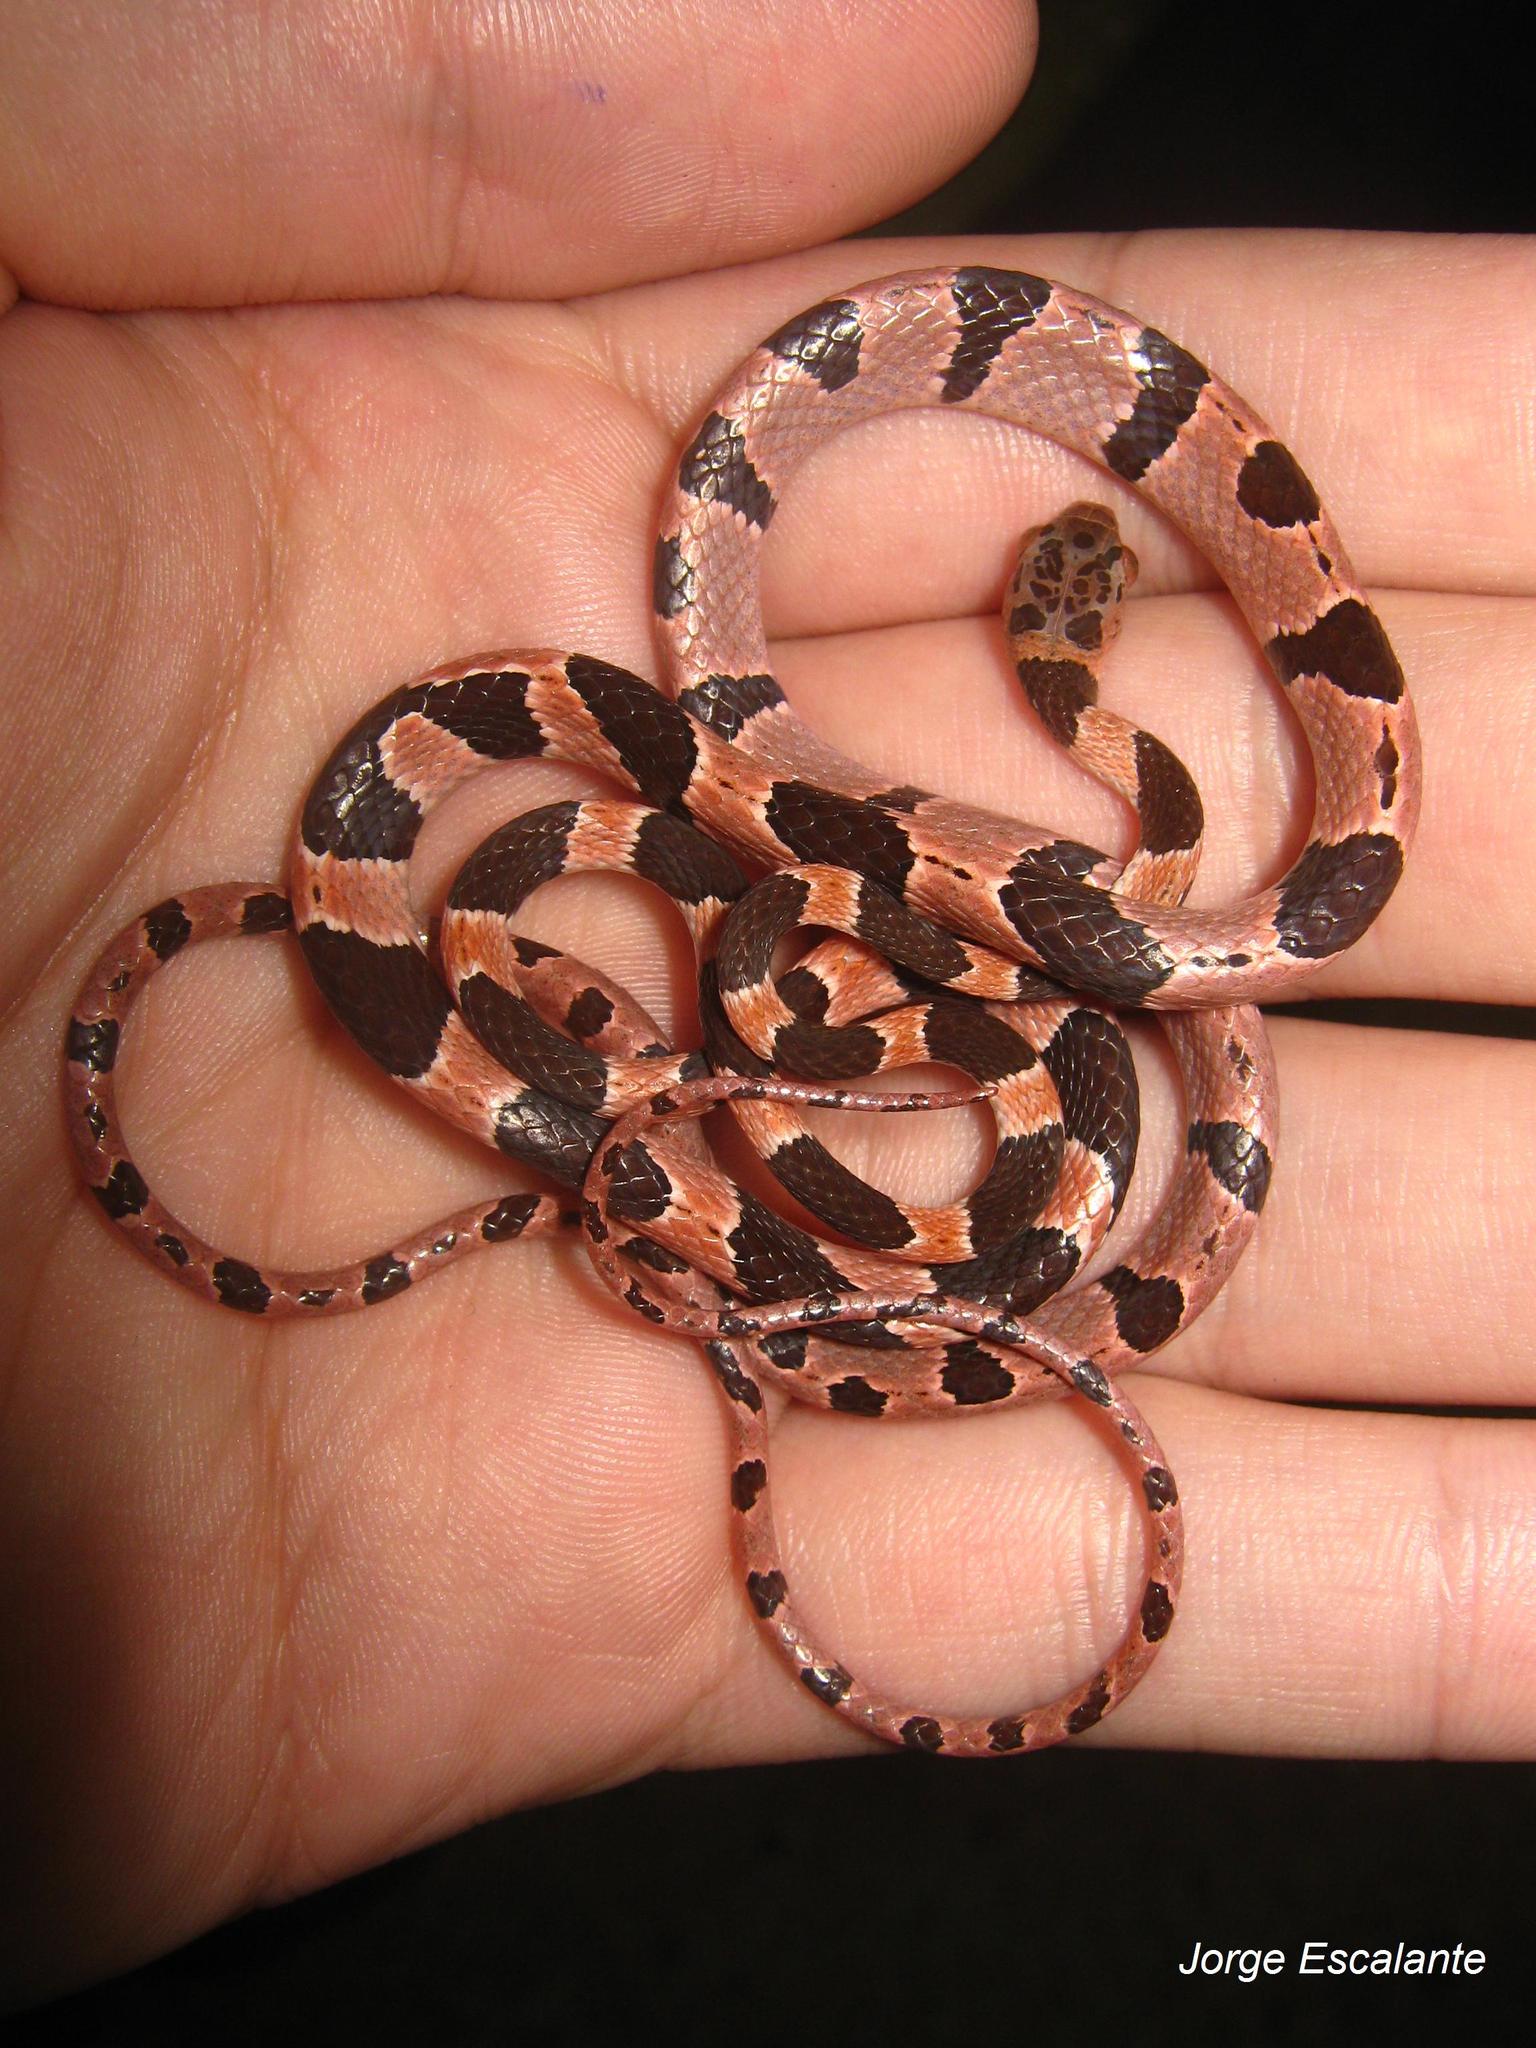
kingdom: Animalia
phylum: Chordata
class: Squamata
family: Colubridae
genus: Imantodes
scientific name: Imantodes tenuissimus
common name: Yucatán blunthead snake
